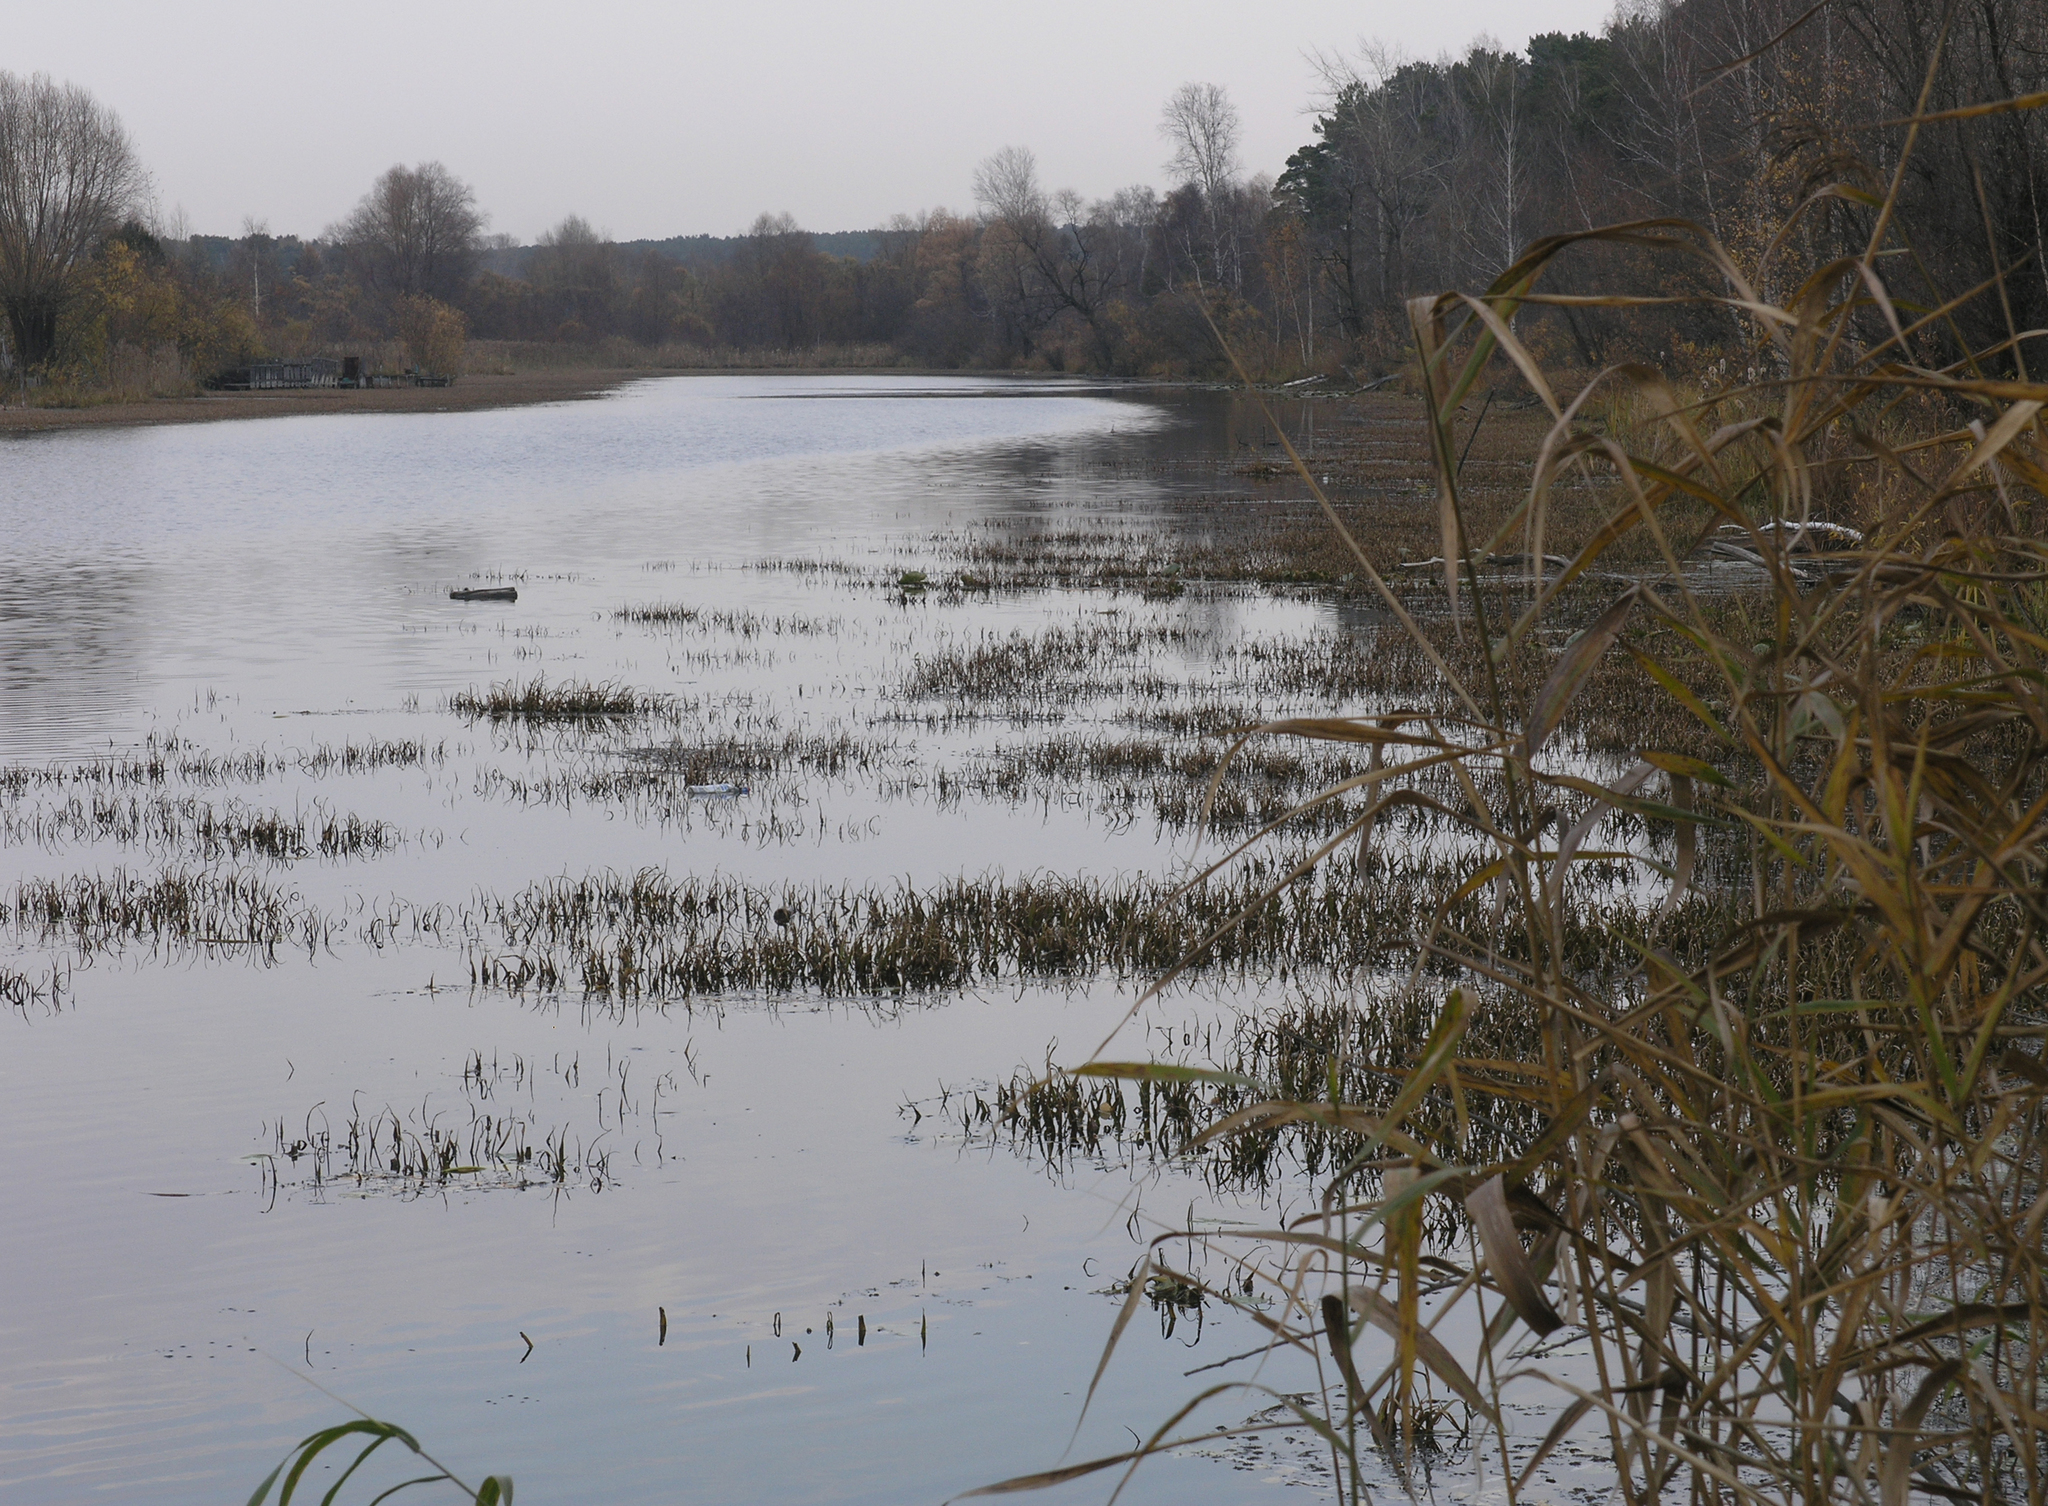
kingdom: Plantae
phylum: Tracheophyta
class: Liliopsida
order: Alismatales
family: Hydrocharitaceae
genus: Stratiotes
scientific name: Stratiotes aloides
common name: Water-soldier
